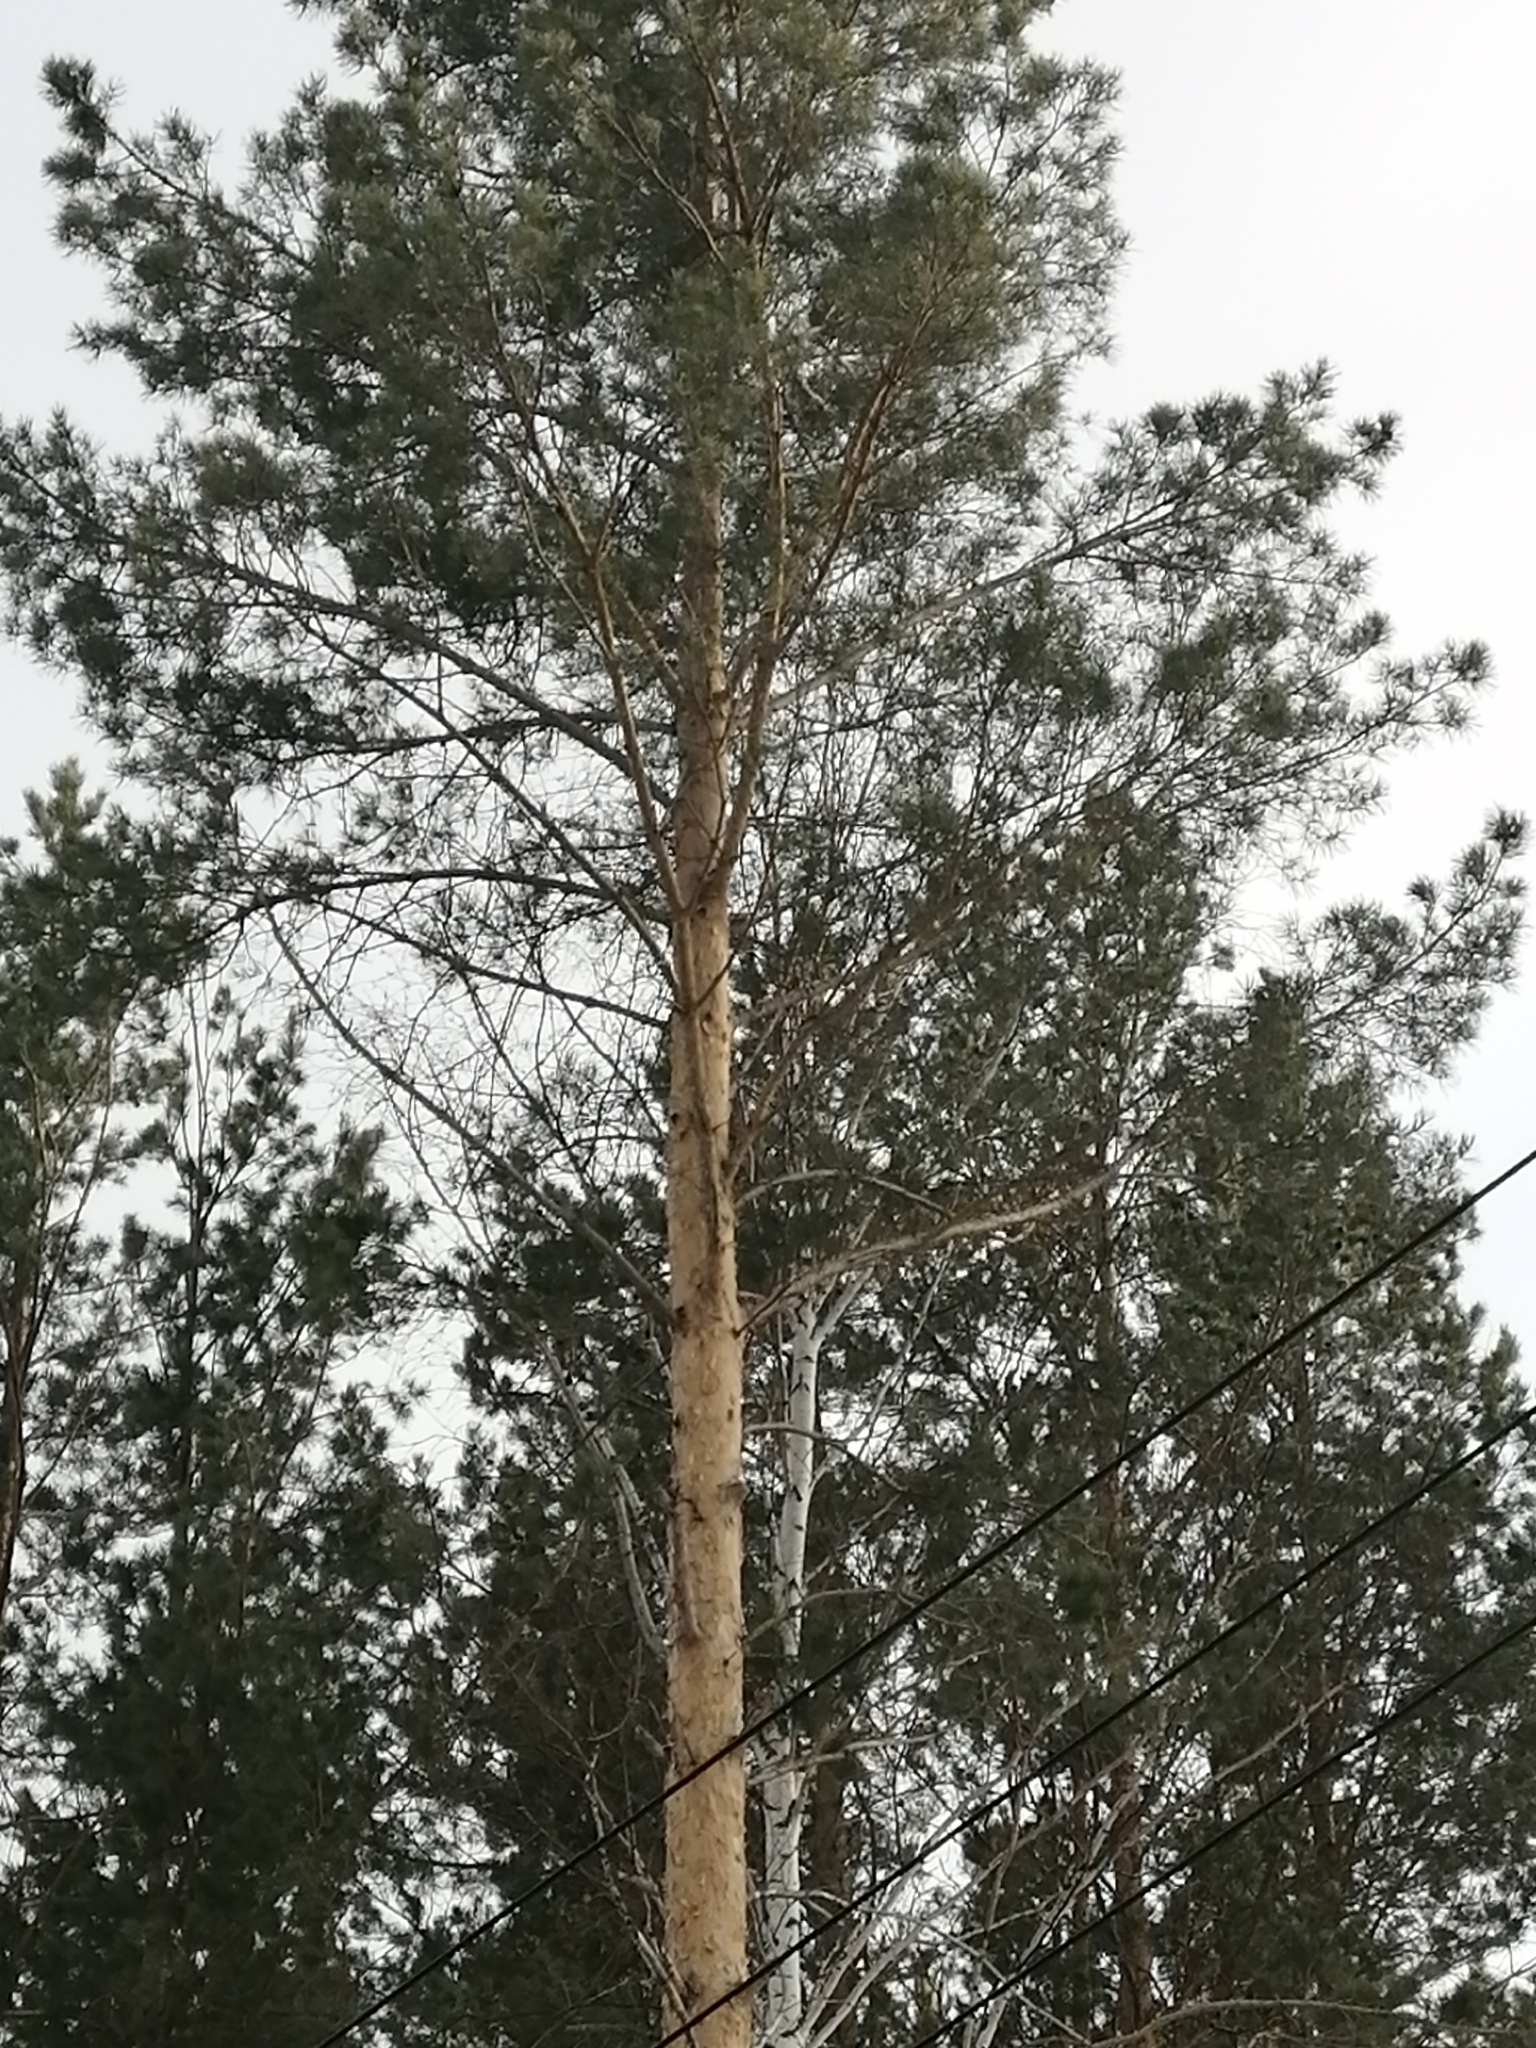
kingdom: Plantae
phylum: Tracheophyta
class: Pinopsida
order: Pinales
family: Pinaceae
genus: Pinus
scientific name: Pinus sylvestris
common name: Scots pine
